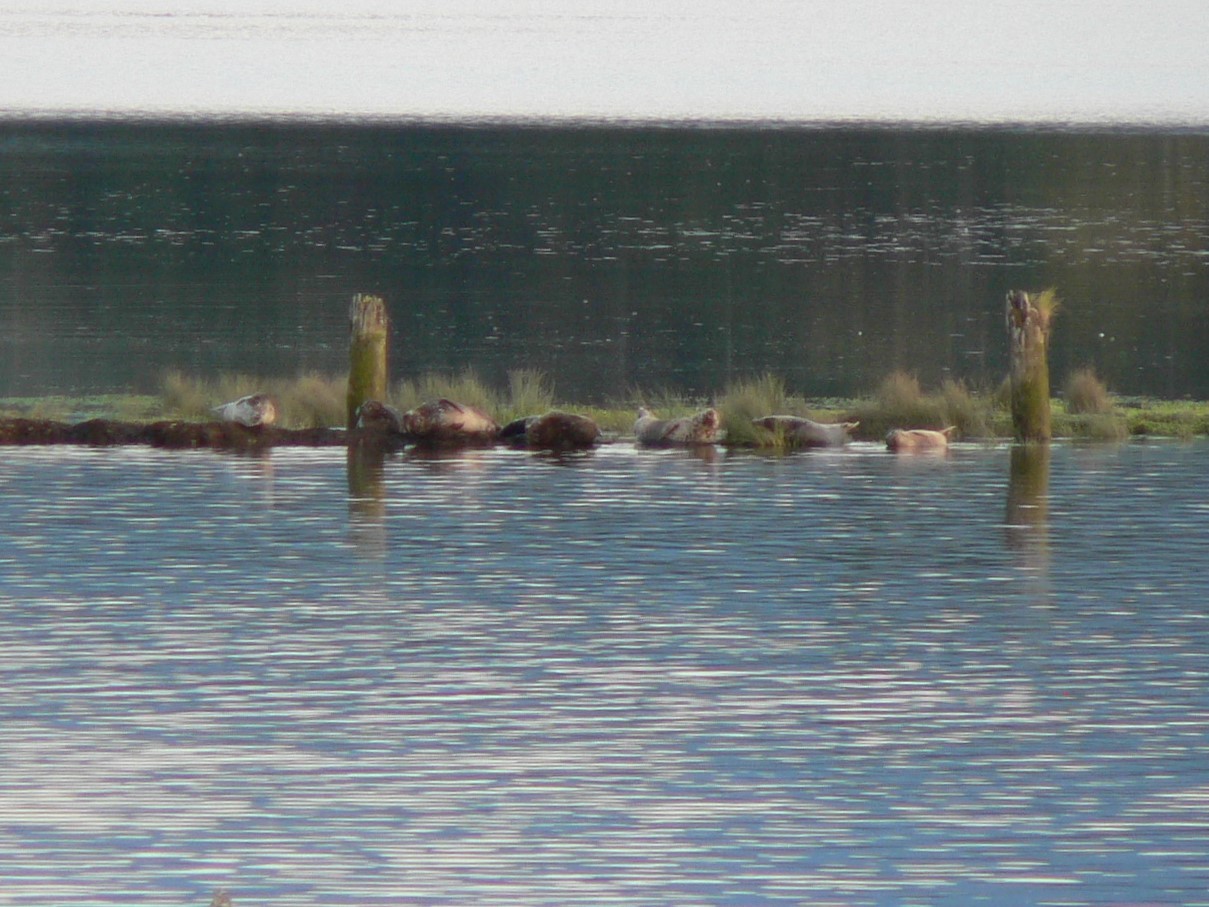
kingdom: Animalia
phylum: Chordata
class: Mammalia
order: Carnivora
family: Phocidae
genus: Phoca
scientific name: Phoca vitulina
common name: Harbor seal
